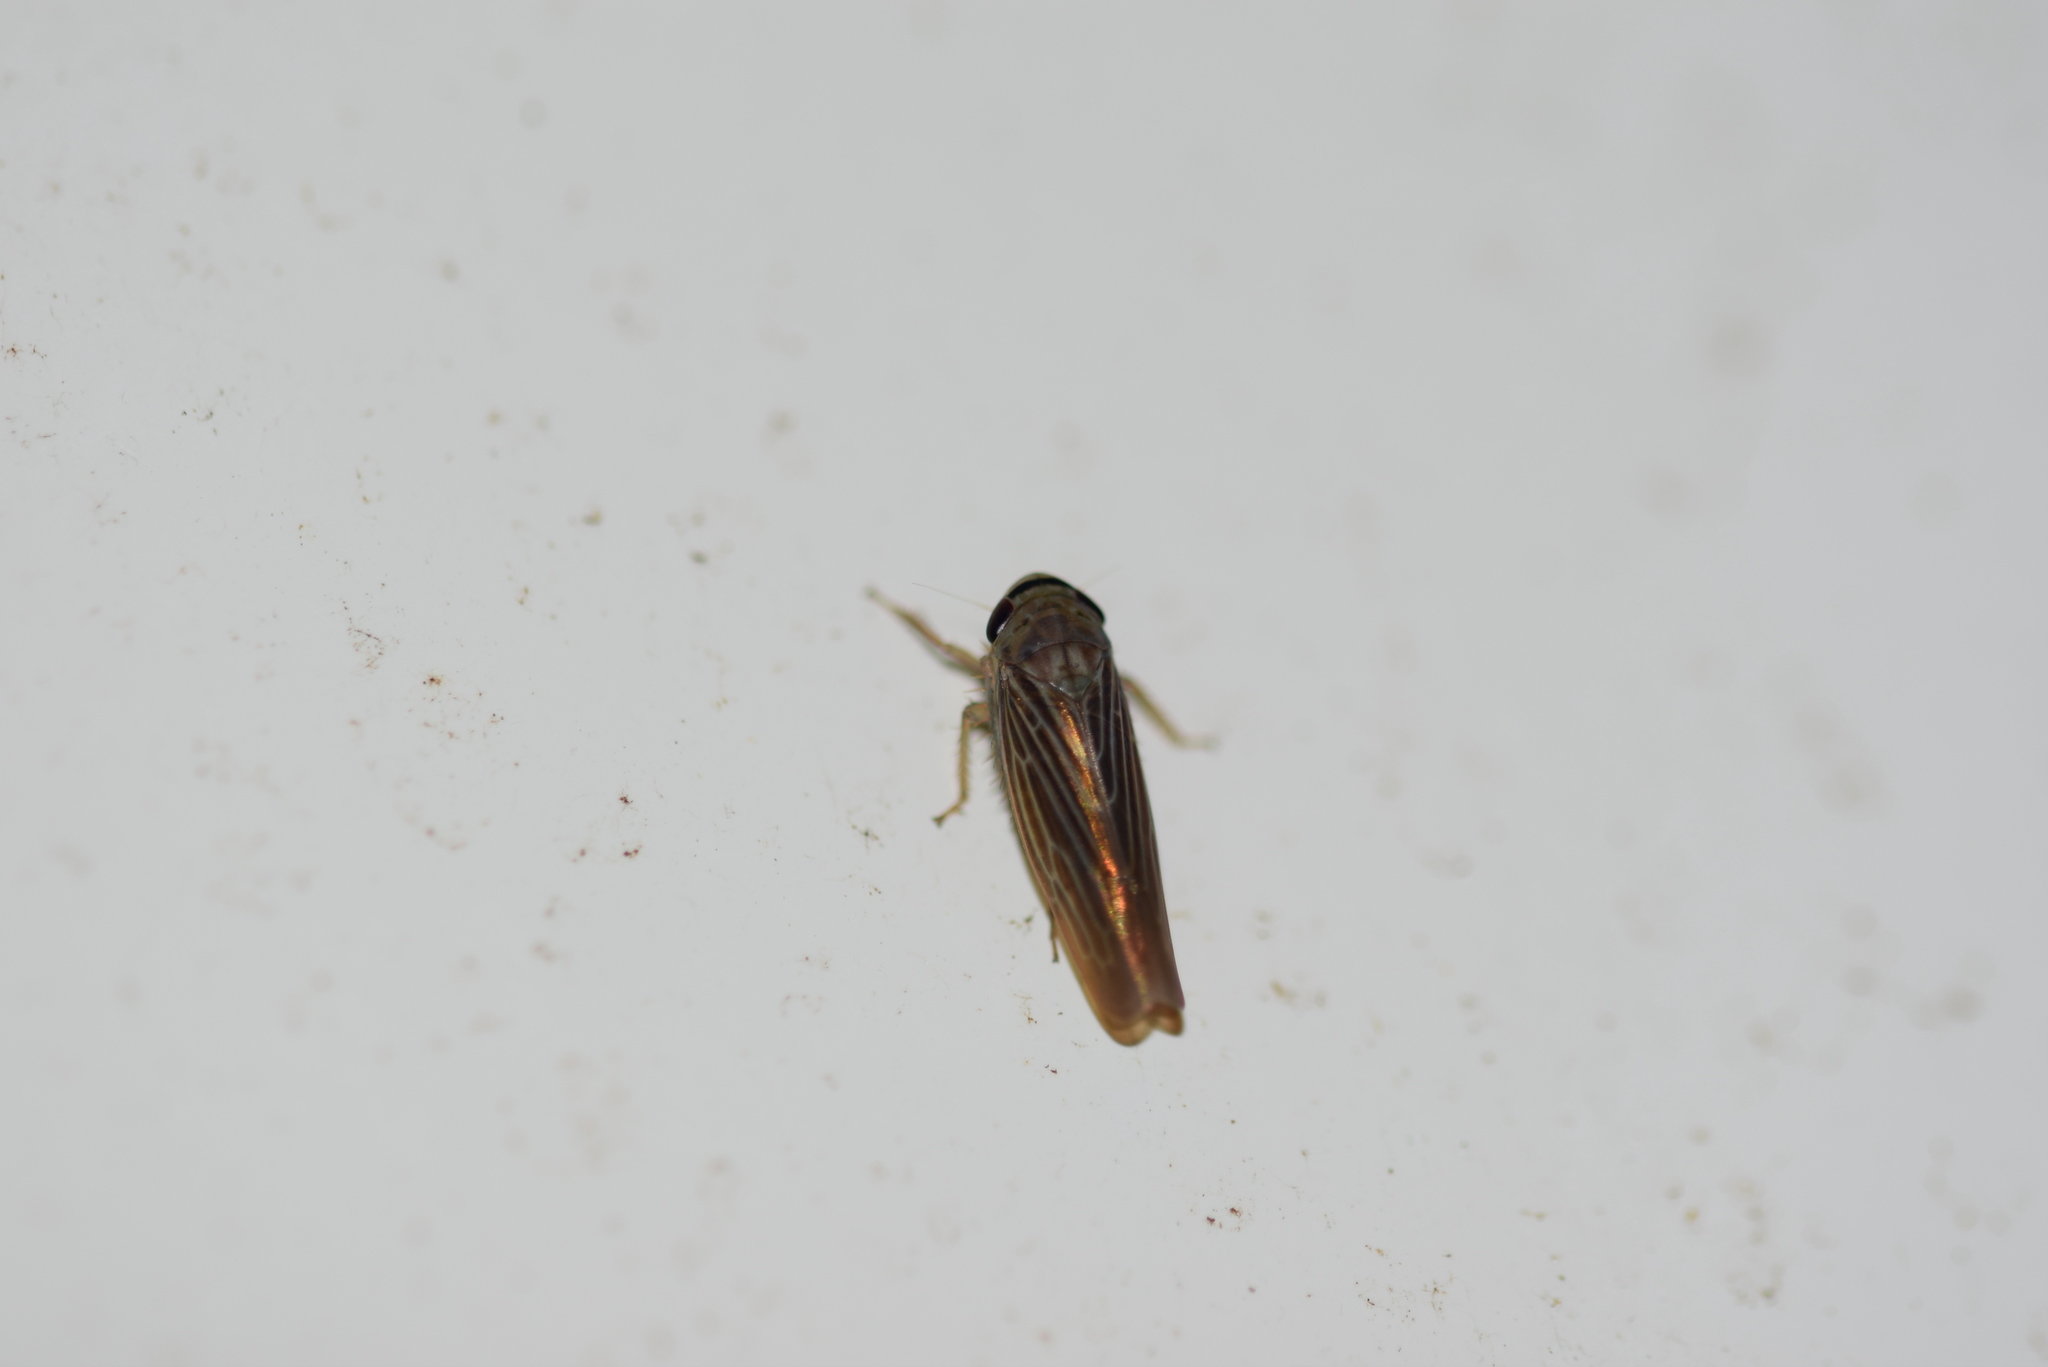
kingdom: Animalia
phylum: Arthropoda
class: Insecta
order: Hemiptera
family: Cicadellidae
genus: Chlorotettix
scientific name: Chlorotettix necopinus
